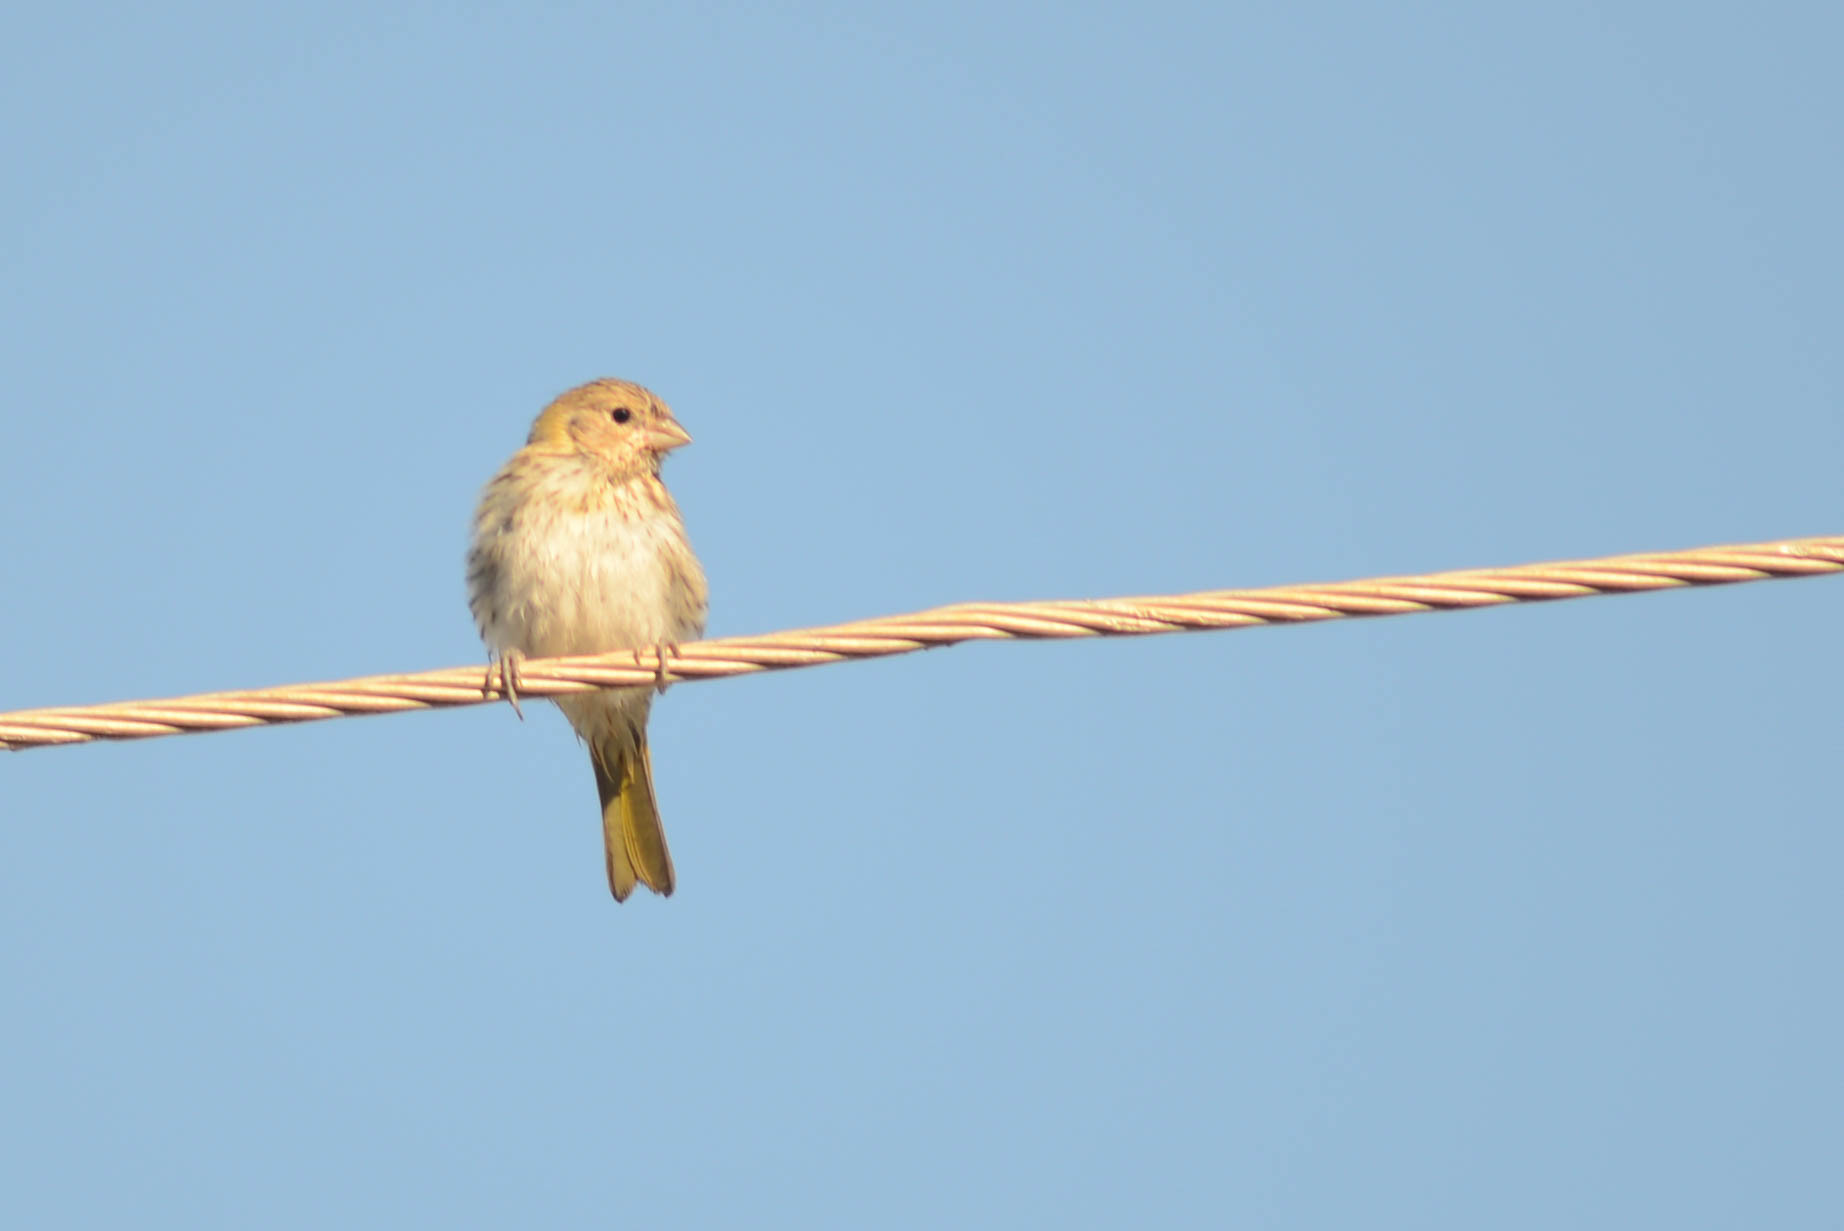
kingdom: Animalia
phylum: Chordata
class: Aves
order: Passeriformes
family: Thraupidae
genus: Sicalis
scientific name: Sicalis flaveola
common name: Saffron finch
